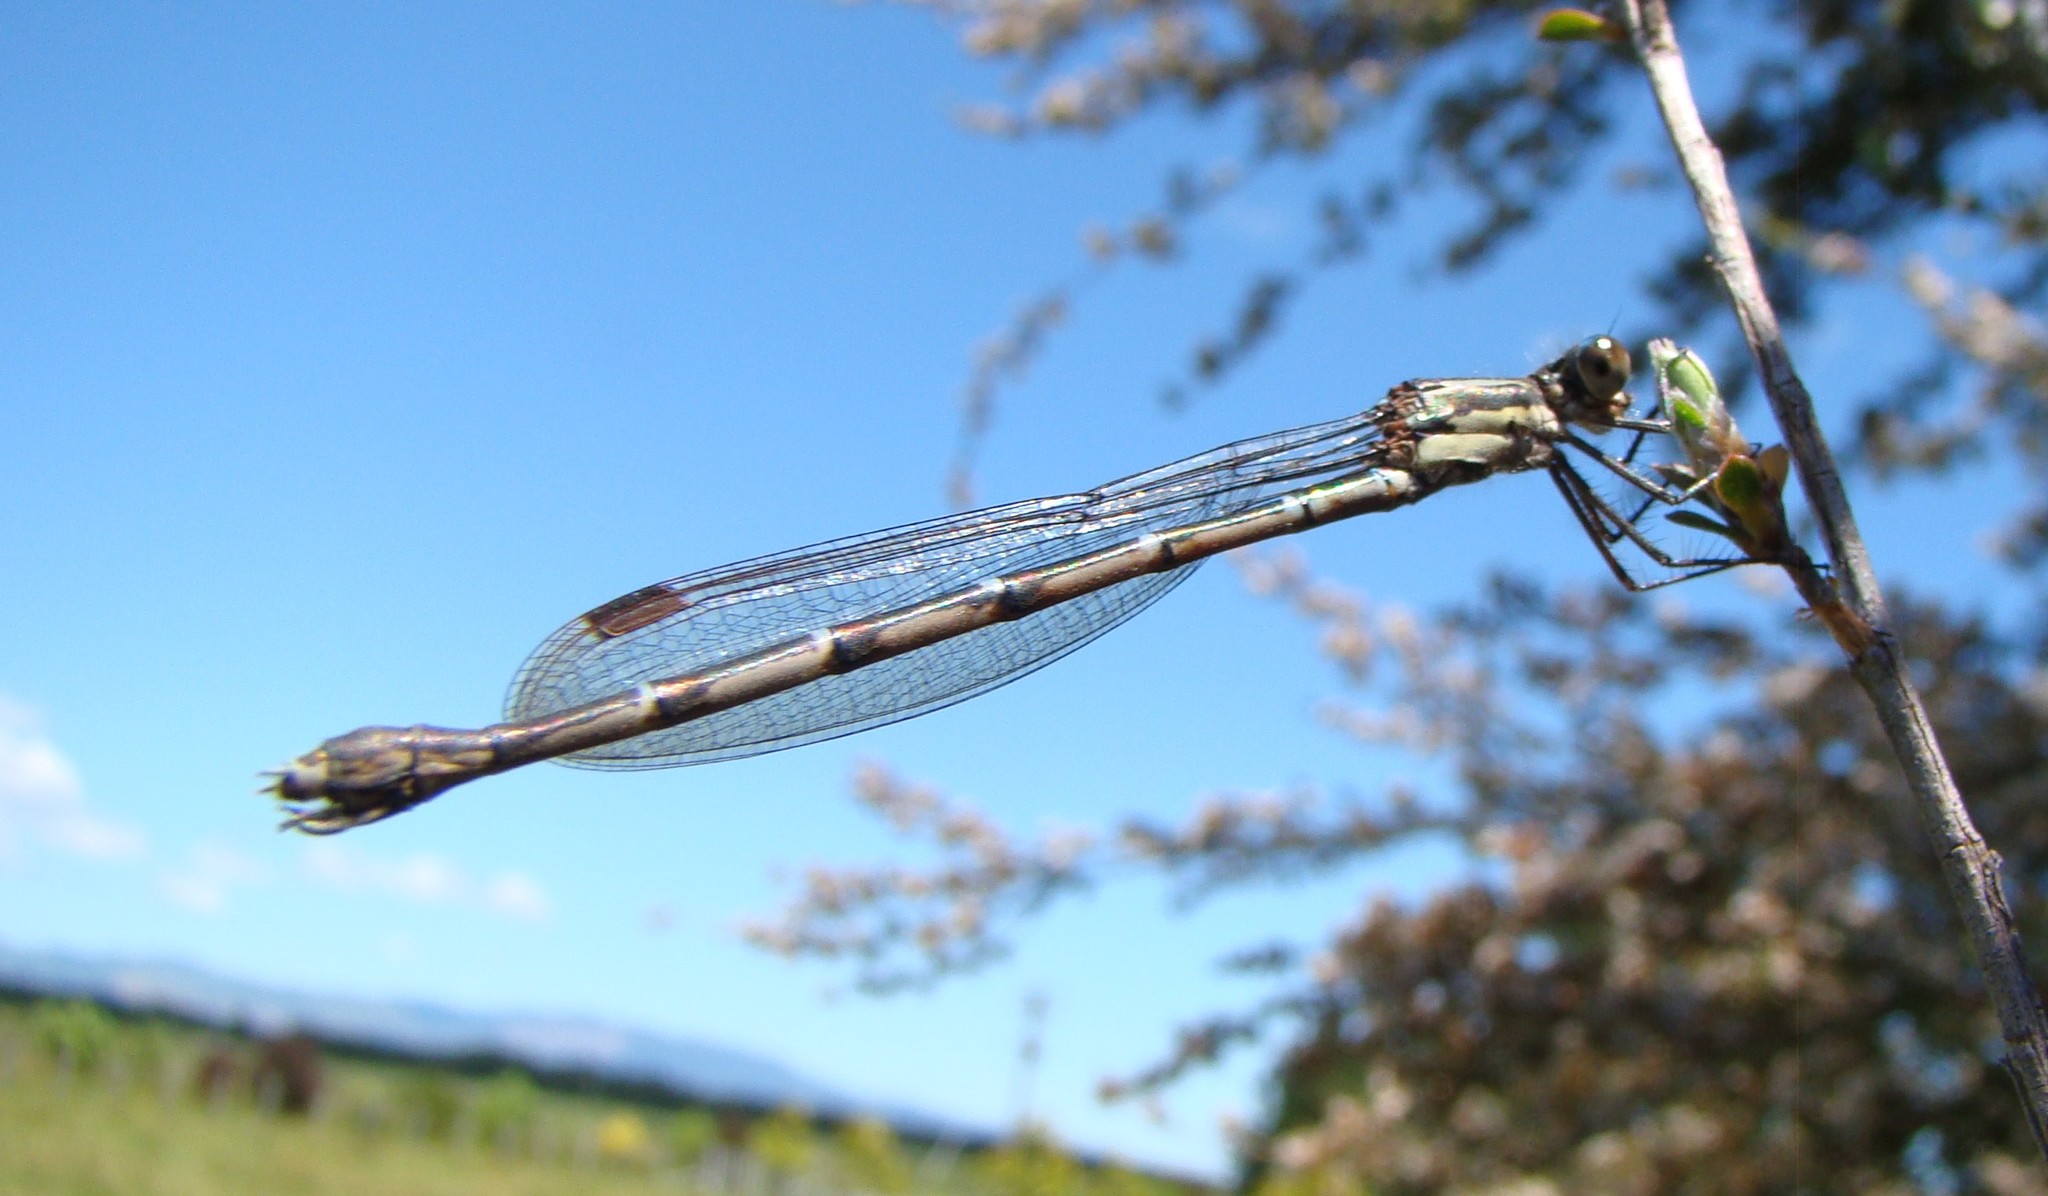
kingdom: Animalia
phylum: Arthropoda
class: Insecta
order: Odonata
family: Lestidae
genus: Austrolestes
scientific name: Austrolestes colensonis
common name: Blue damselfly
